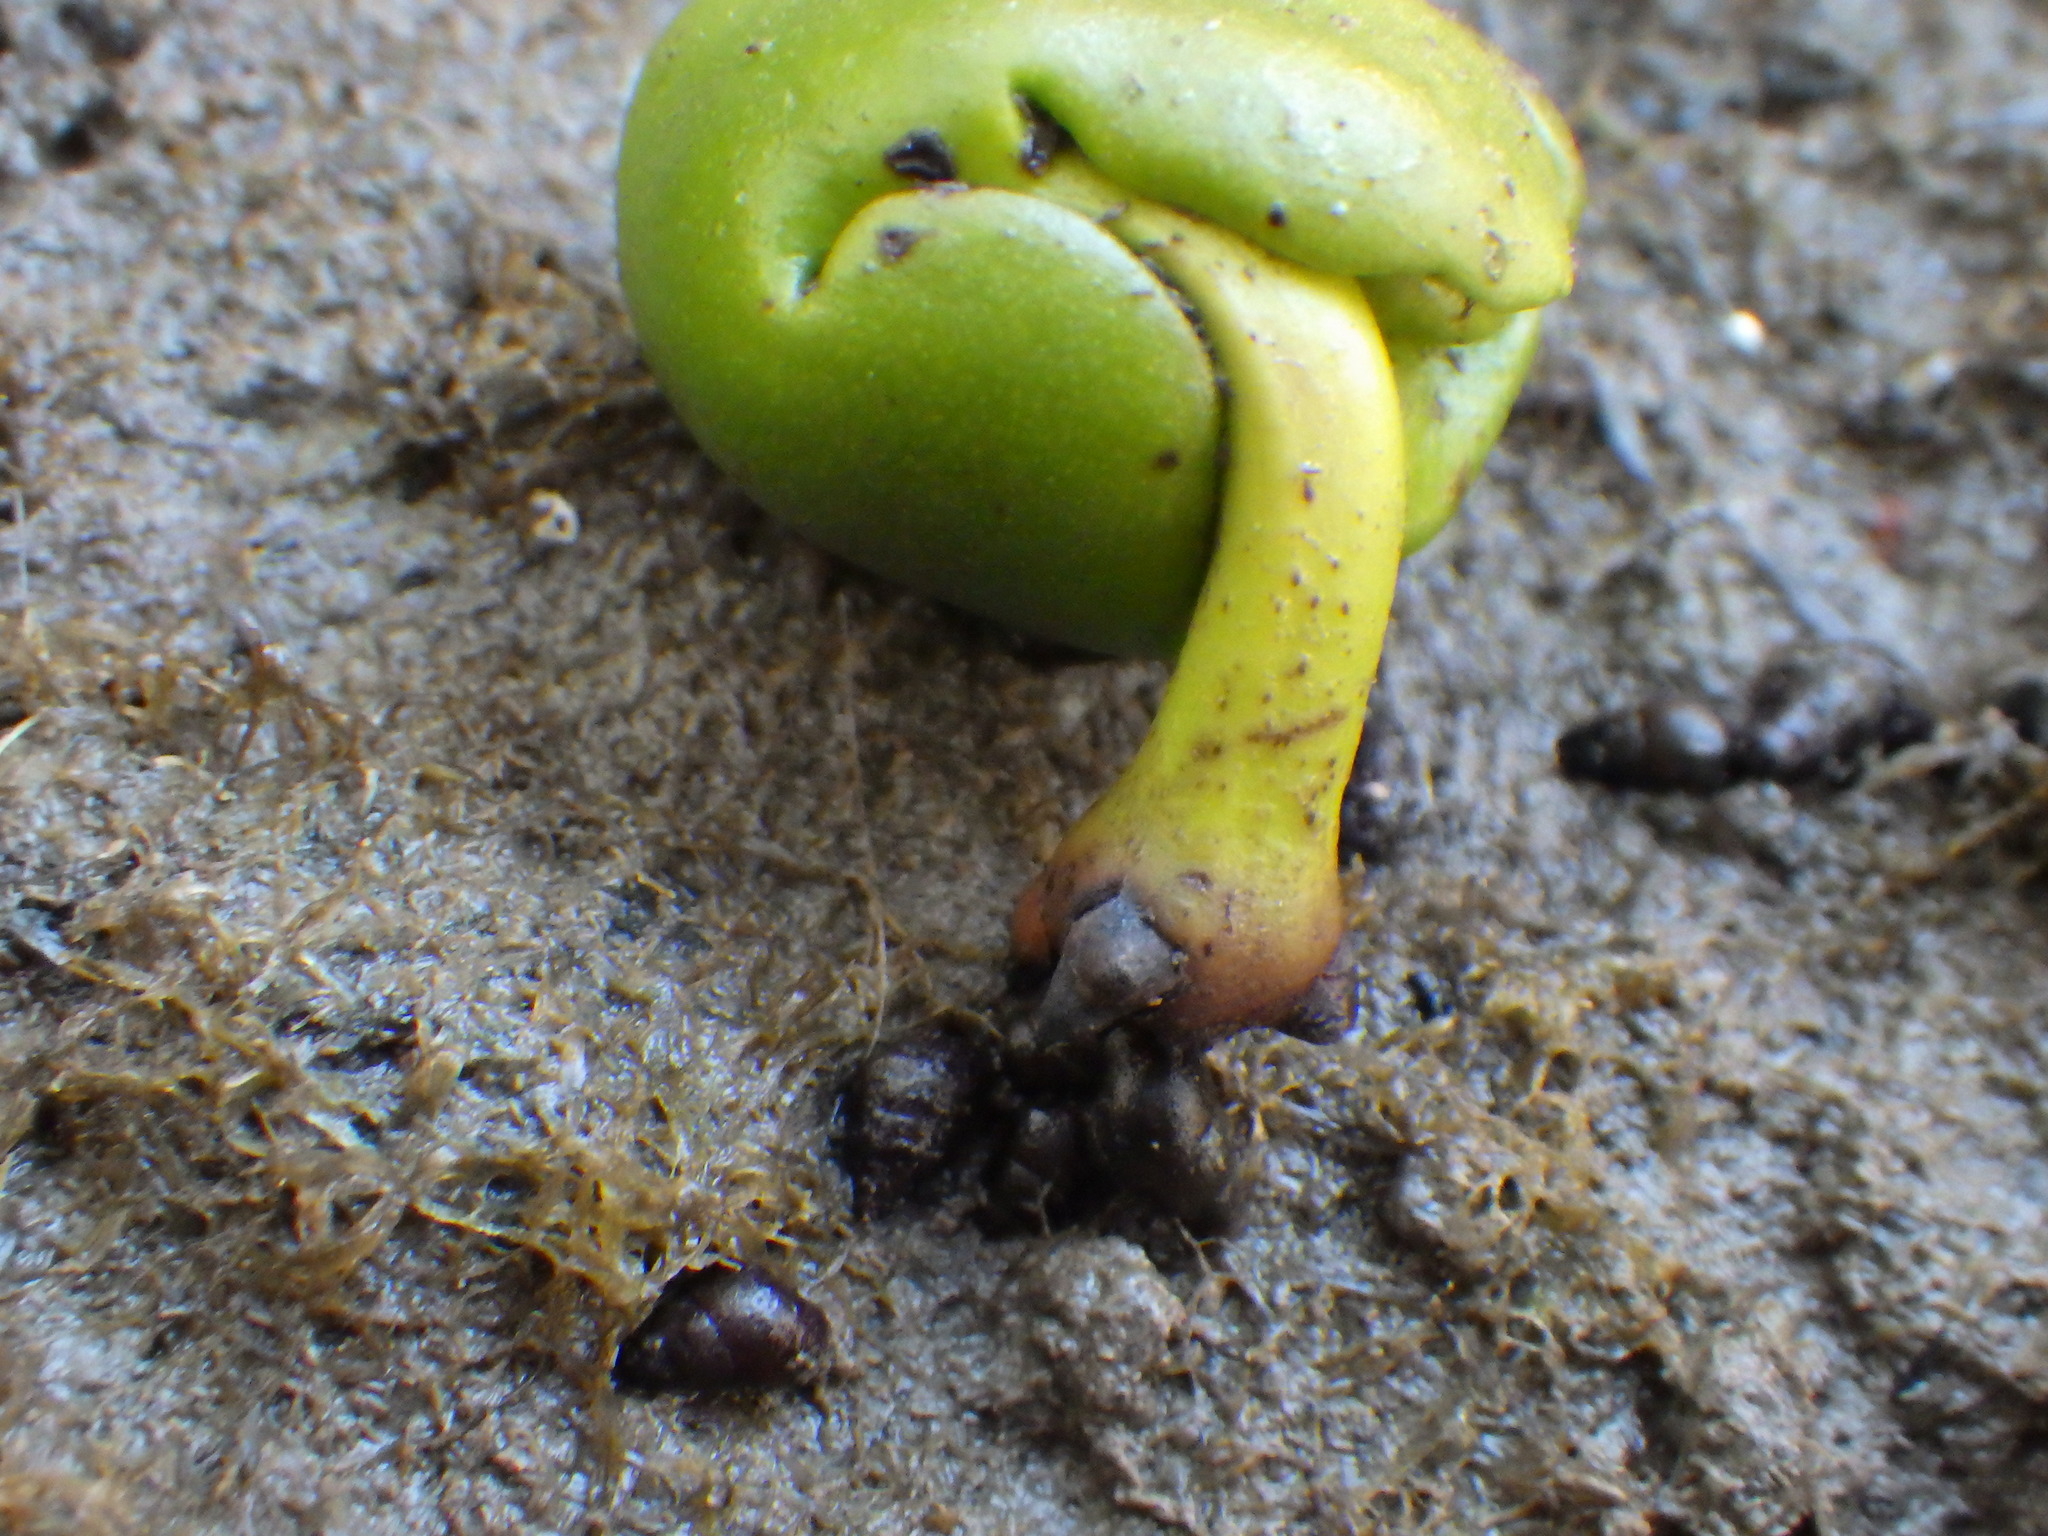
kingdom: Animalia
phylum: Mollusca
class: Gastropoda
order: Littorinimorpha
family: Tateidae
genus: Potamopyrgus
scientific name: Potamopyrgus estuarinus
